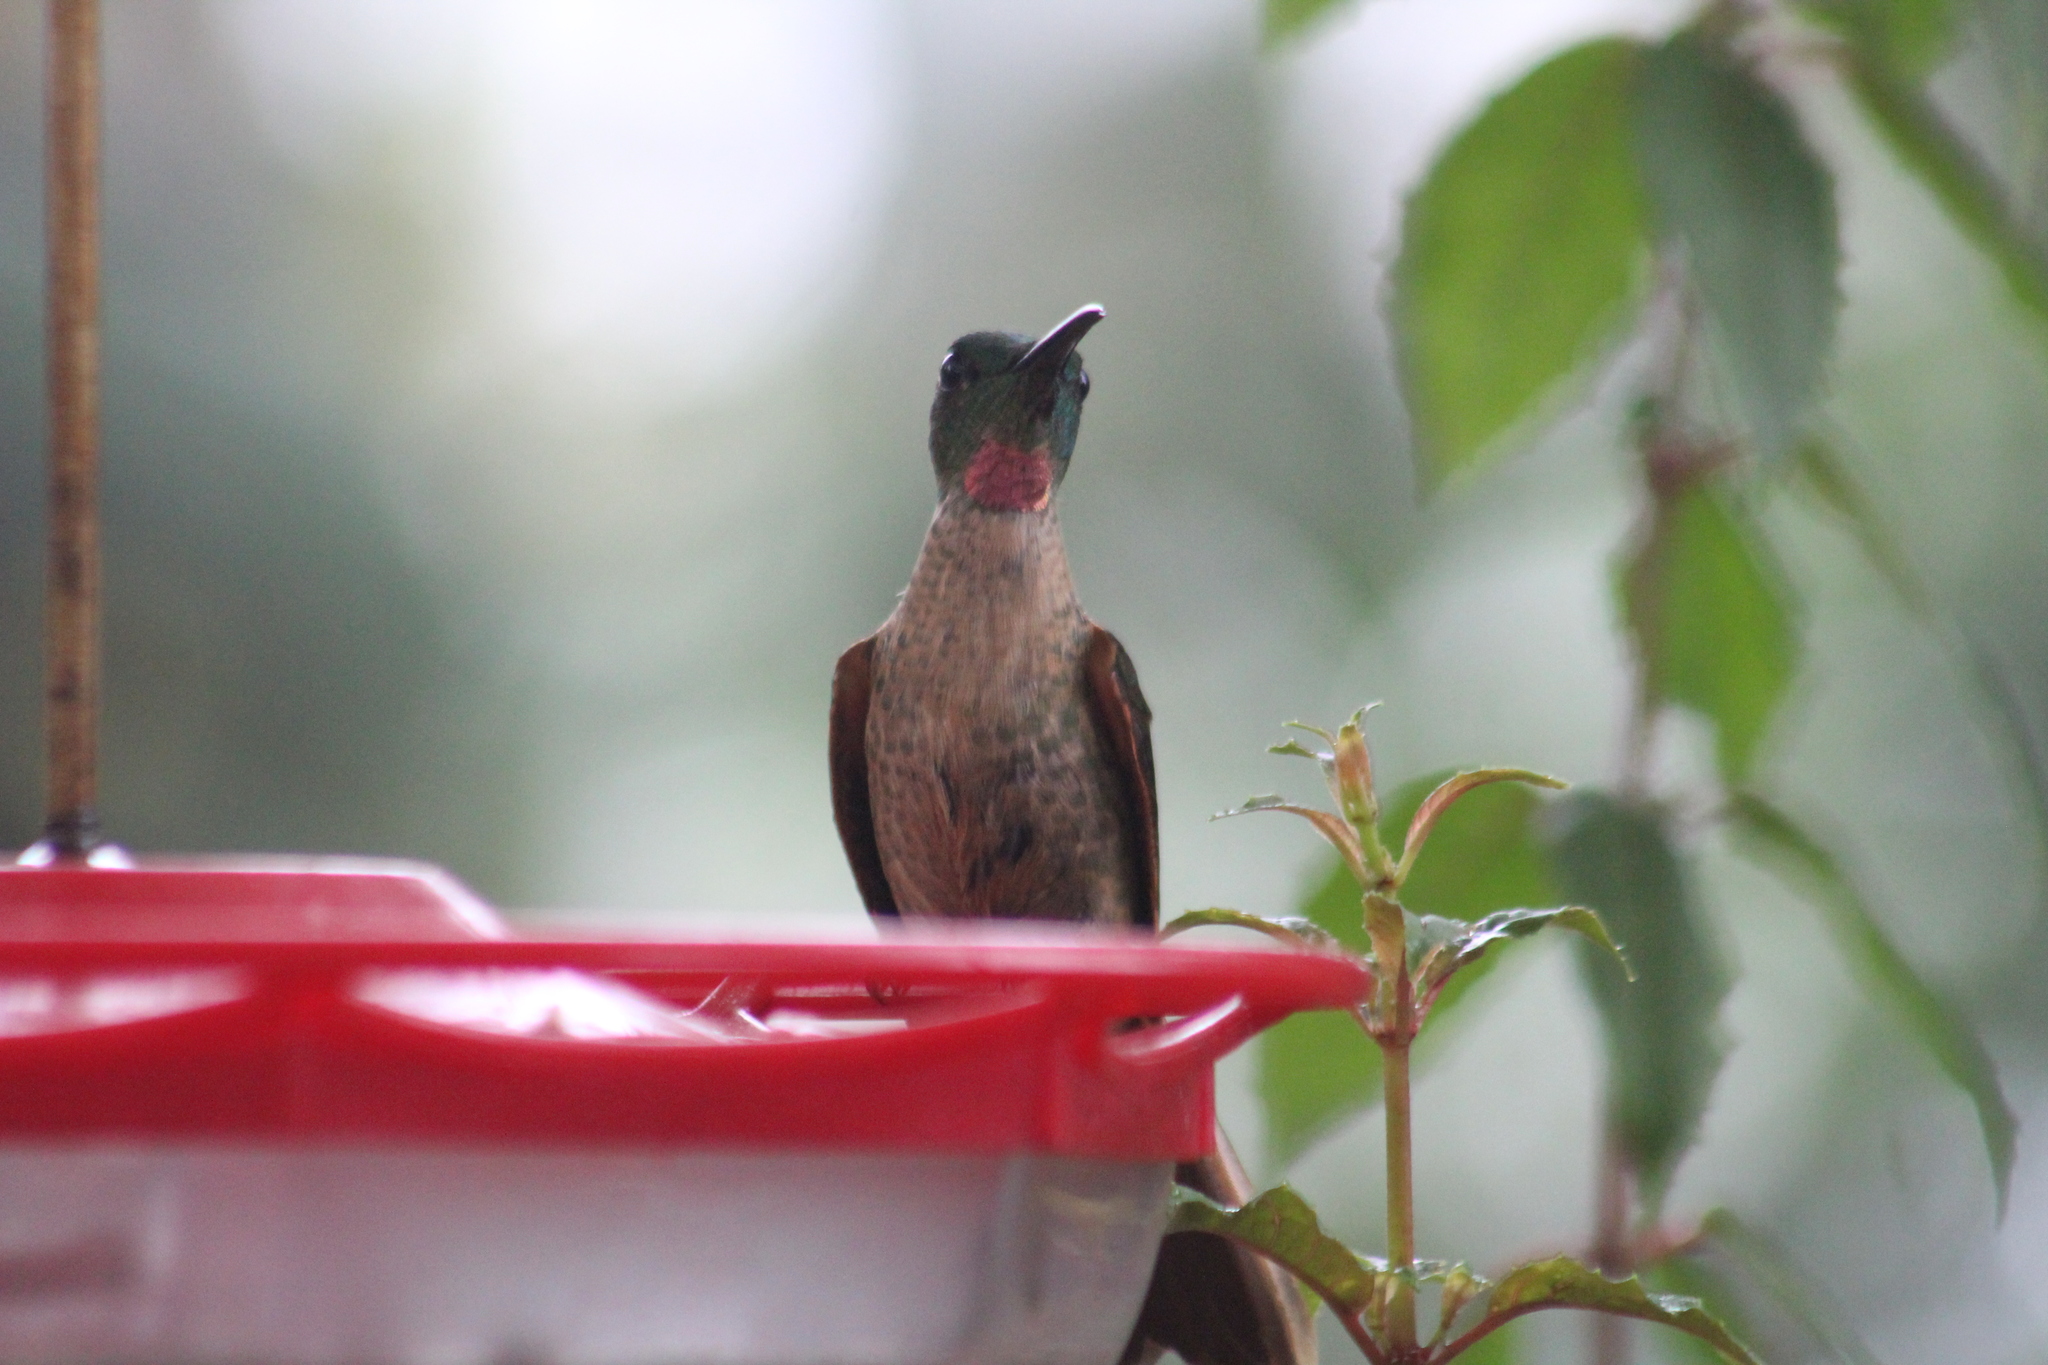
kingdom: Animalia
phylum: Chordata
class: Aves
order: Apodiformes
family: Trochilidae
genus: Heliodoxa
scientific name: Heliodoxa rubinoides
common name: Fawn-breasted brilliant
